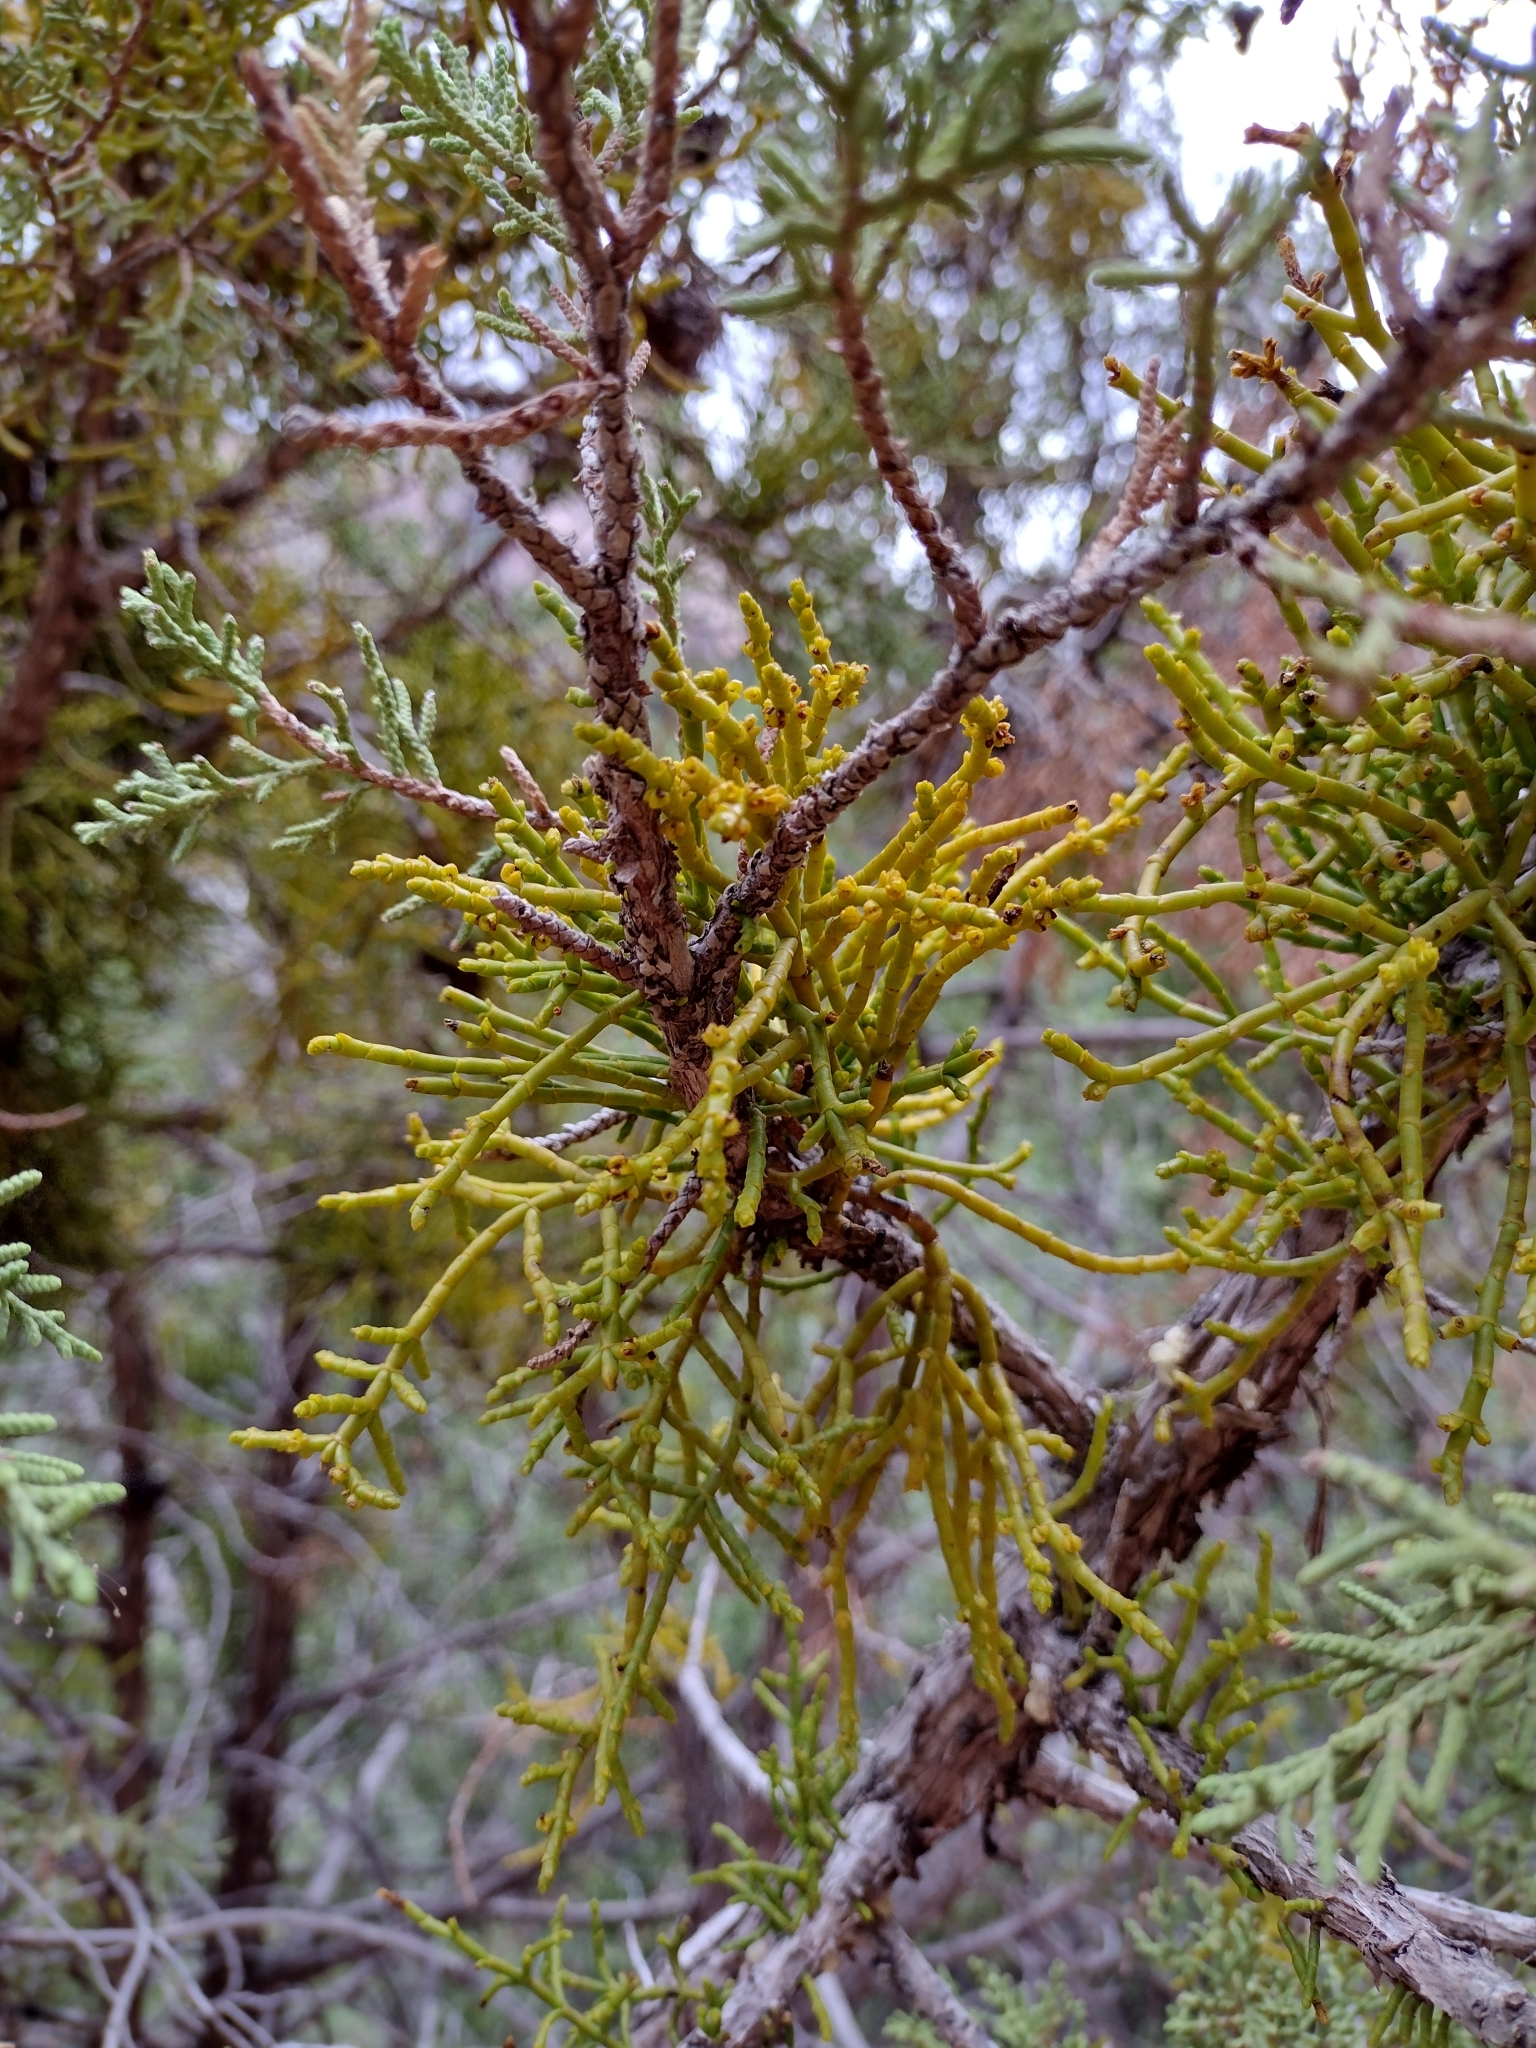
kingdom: Plantae
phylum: Tracheophyta
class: Magnoliopsida
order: Santalales
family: Viscaceae
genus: Phoradendron
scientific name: Phoradendron juniperinum
